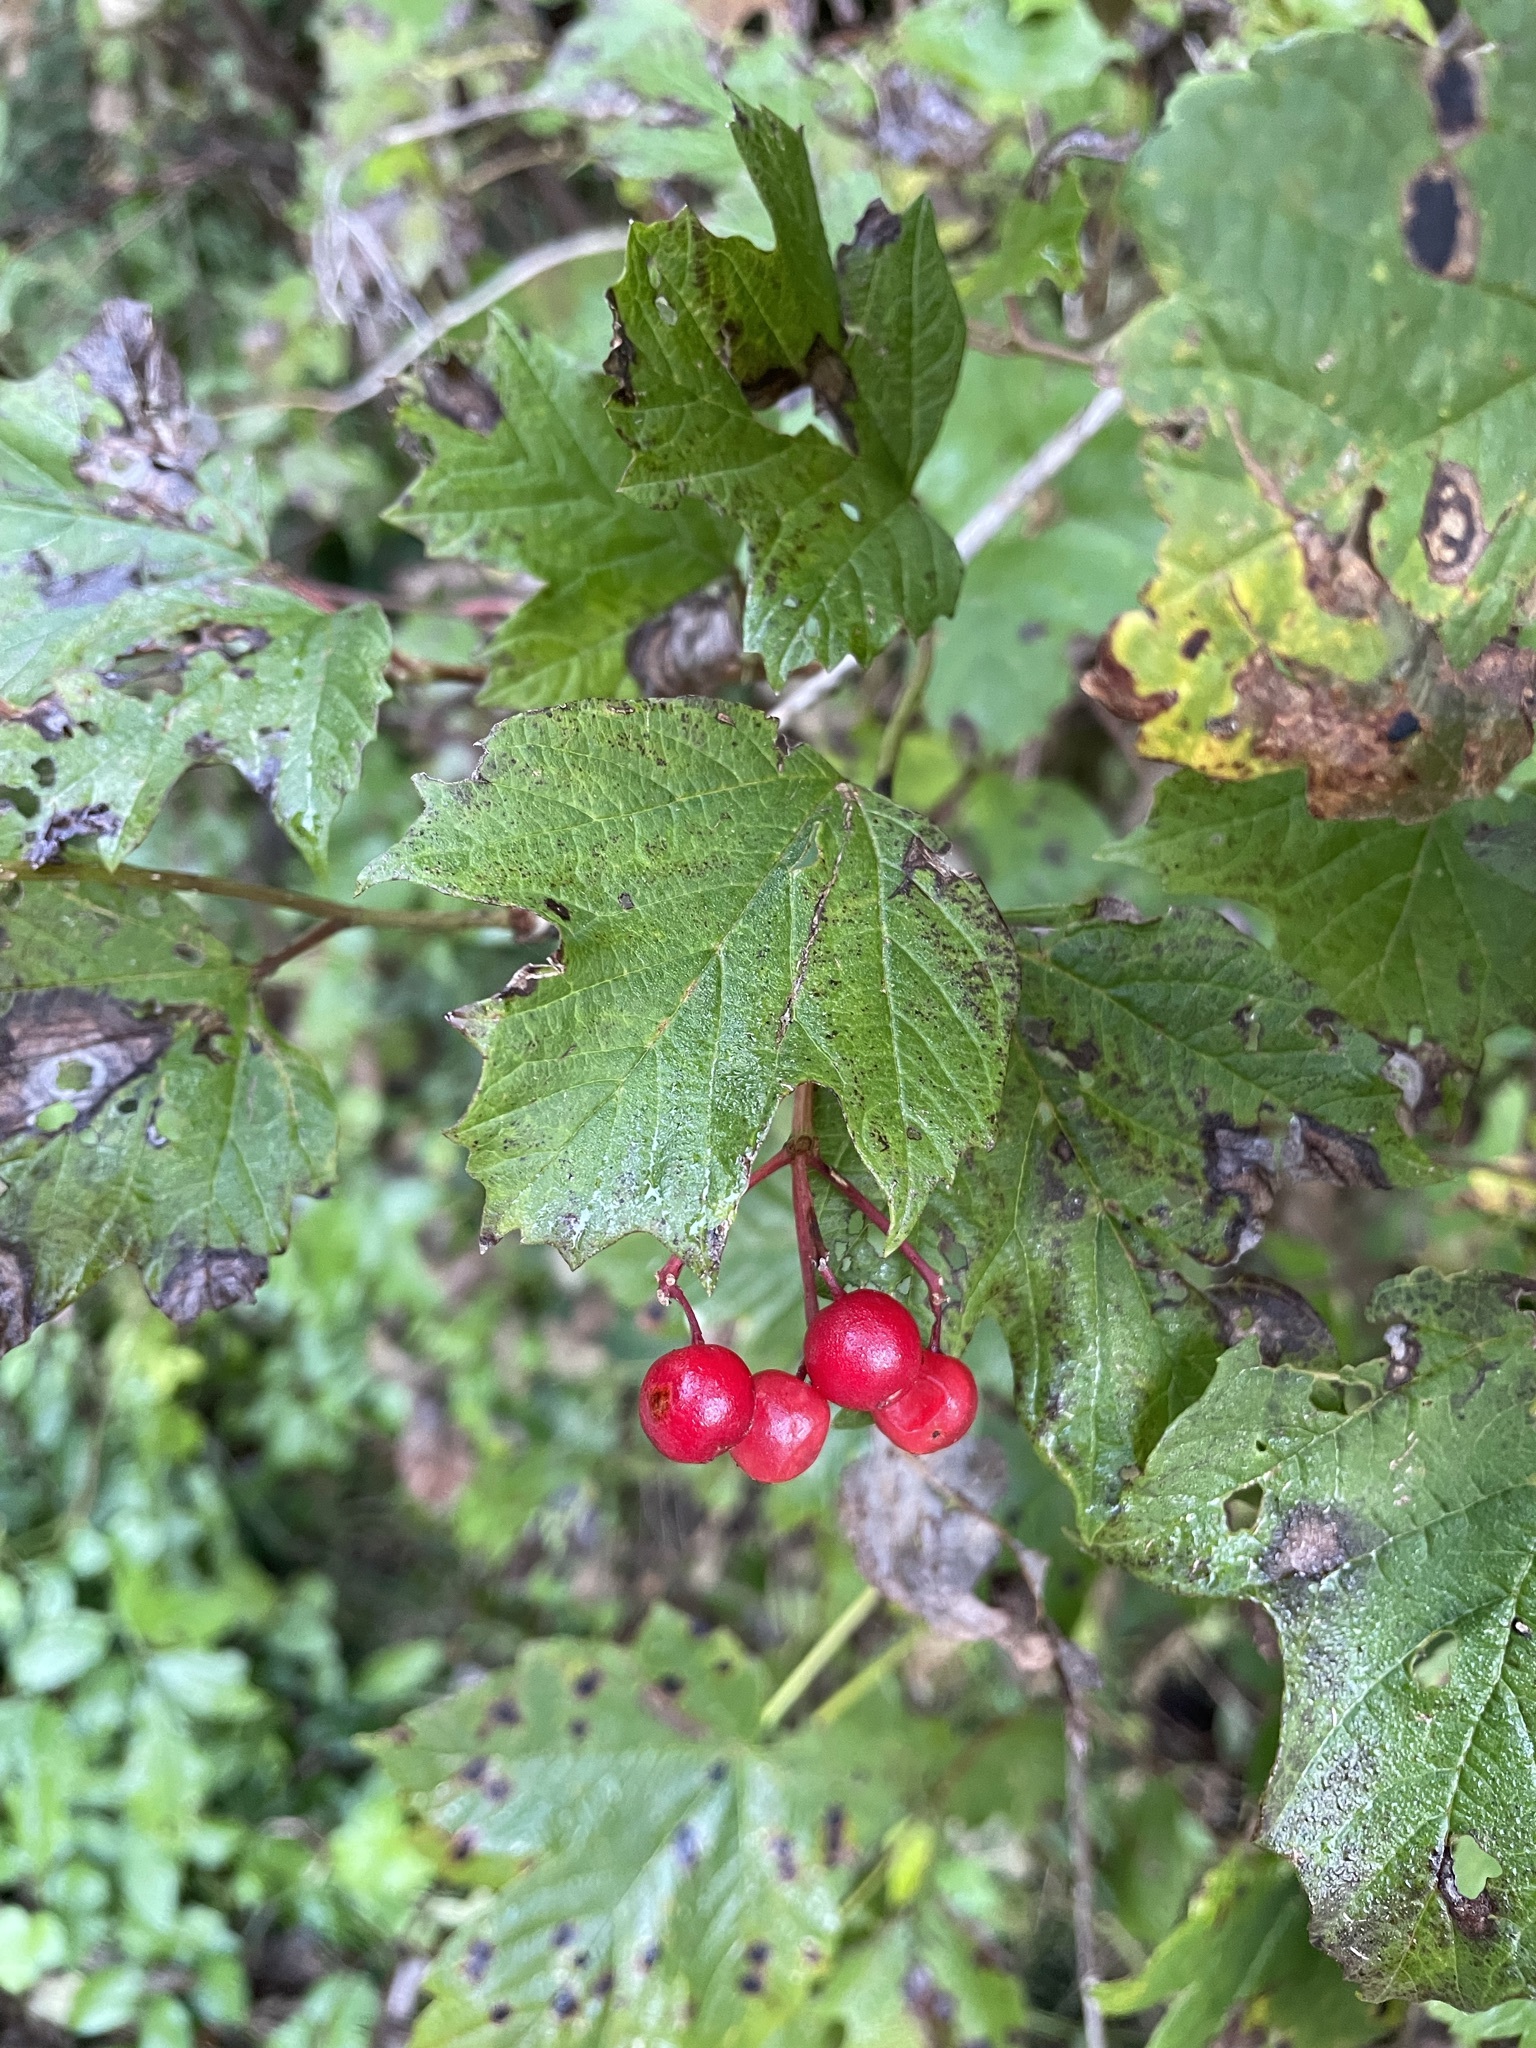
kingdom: Plantae
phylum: Tracheophyta
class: Magnoliopsida
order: Dipsacales
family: Viburnaceae
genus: Viburnum
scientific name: Viburnum opulus
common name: Guelder-rose
